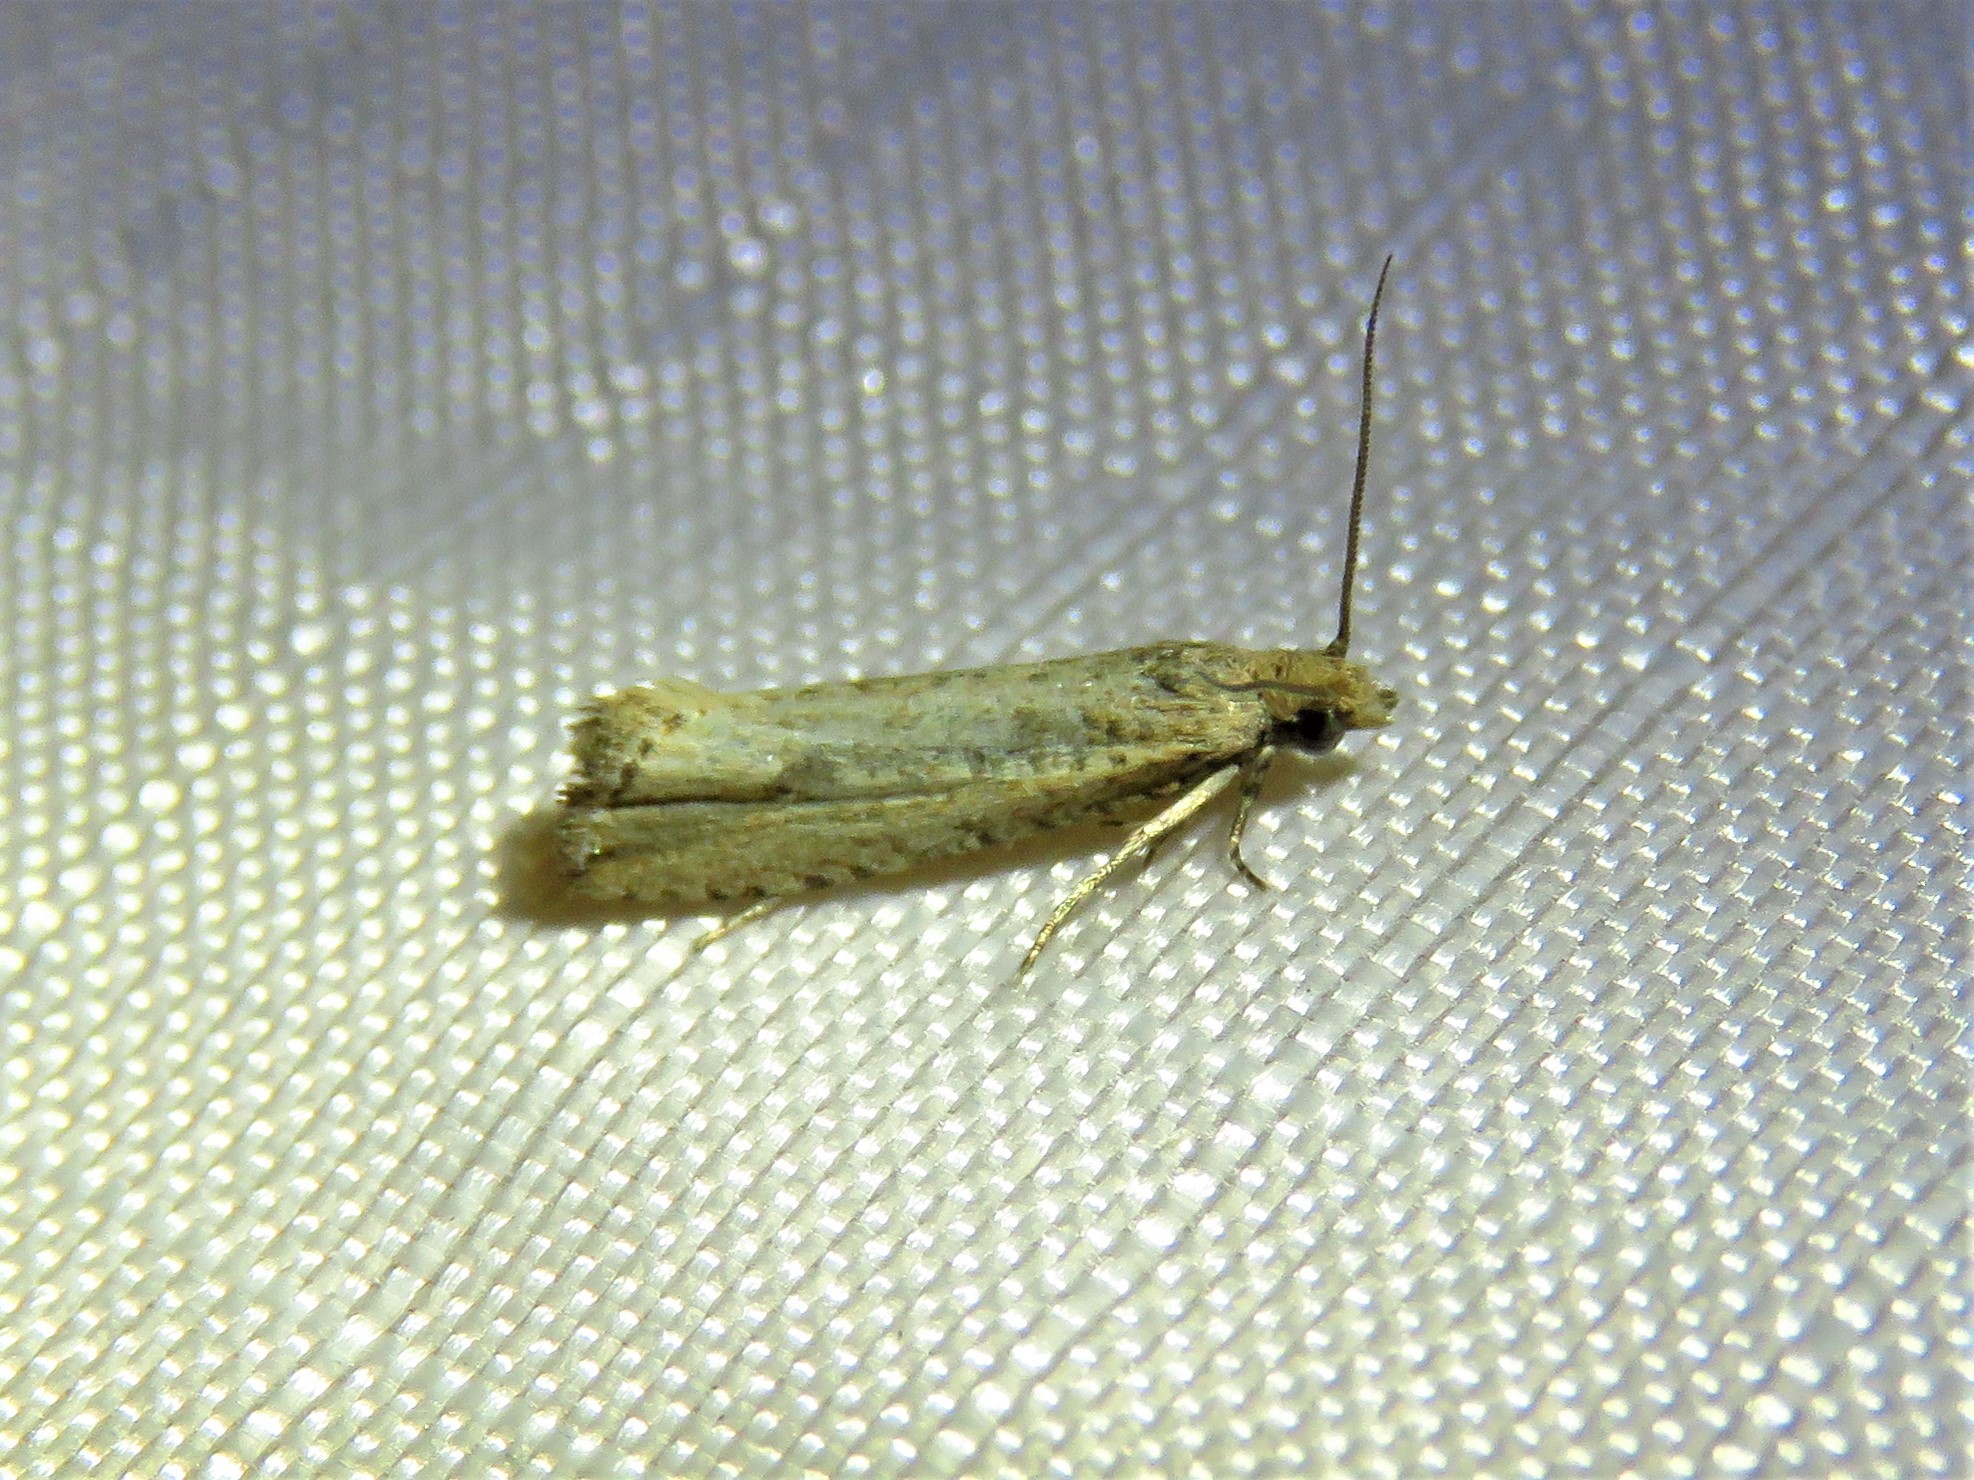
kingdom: Animalia
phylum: Arthropoda
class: Insecta
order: Lepidoptera
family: Tortricidae
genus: Bactra
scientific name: Bactra verutana
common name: Javelin moth
